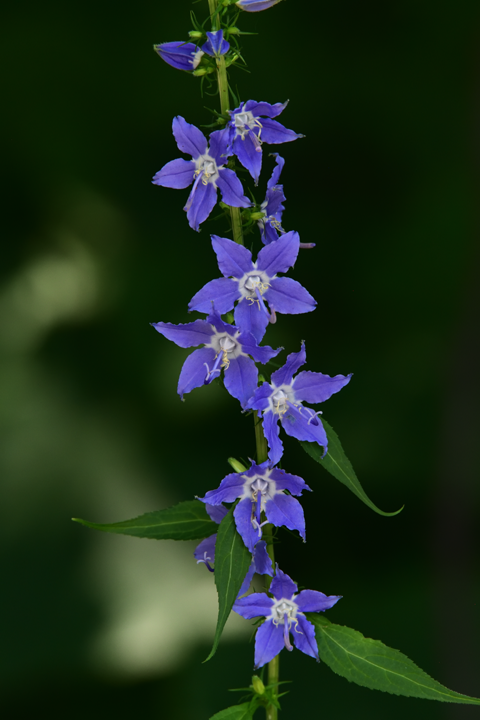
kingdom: Plantae
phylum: Tracheophyta
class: Magnoliopsida
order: Asterales
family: Campanulaceae
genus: Campanulastrum
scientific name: Campanulastrum americanum
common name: American bellflower
